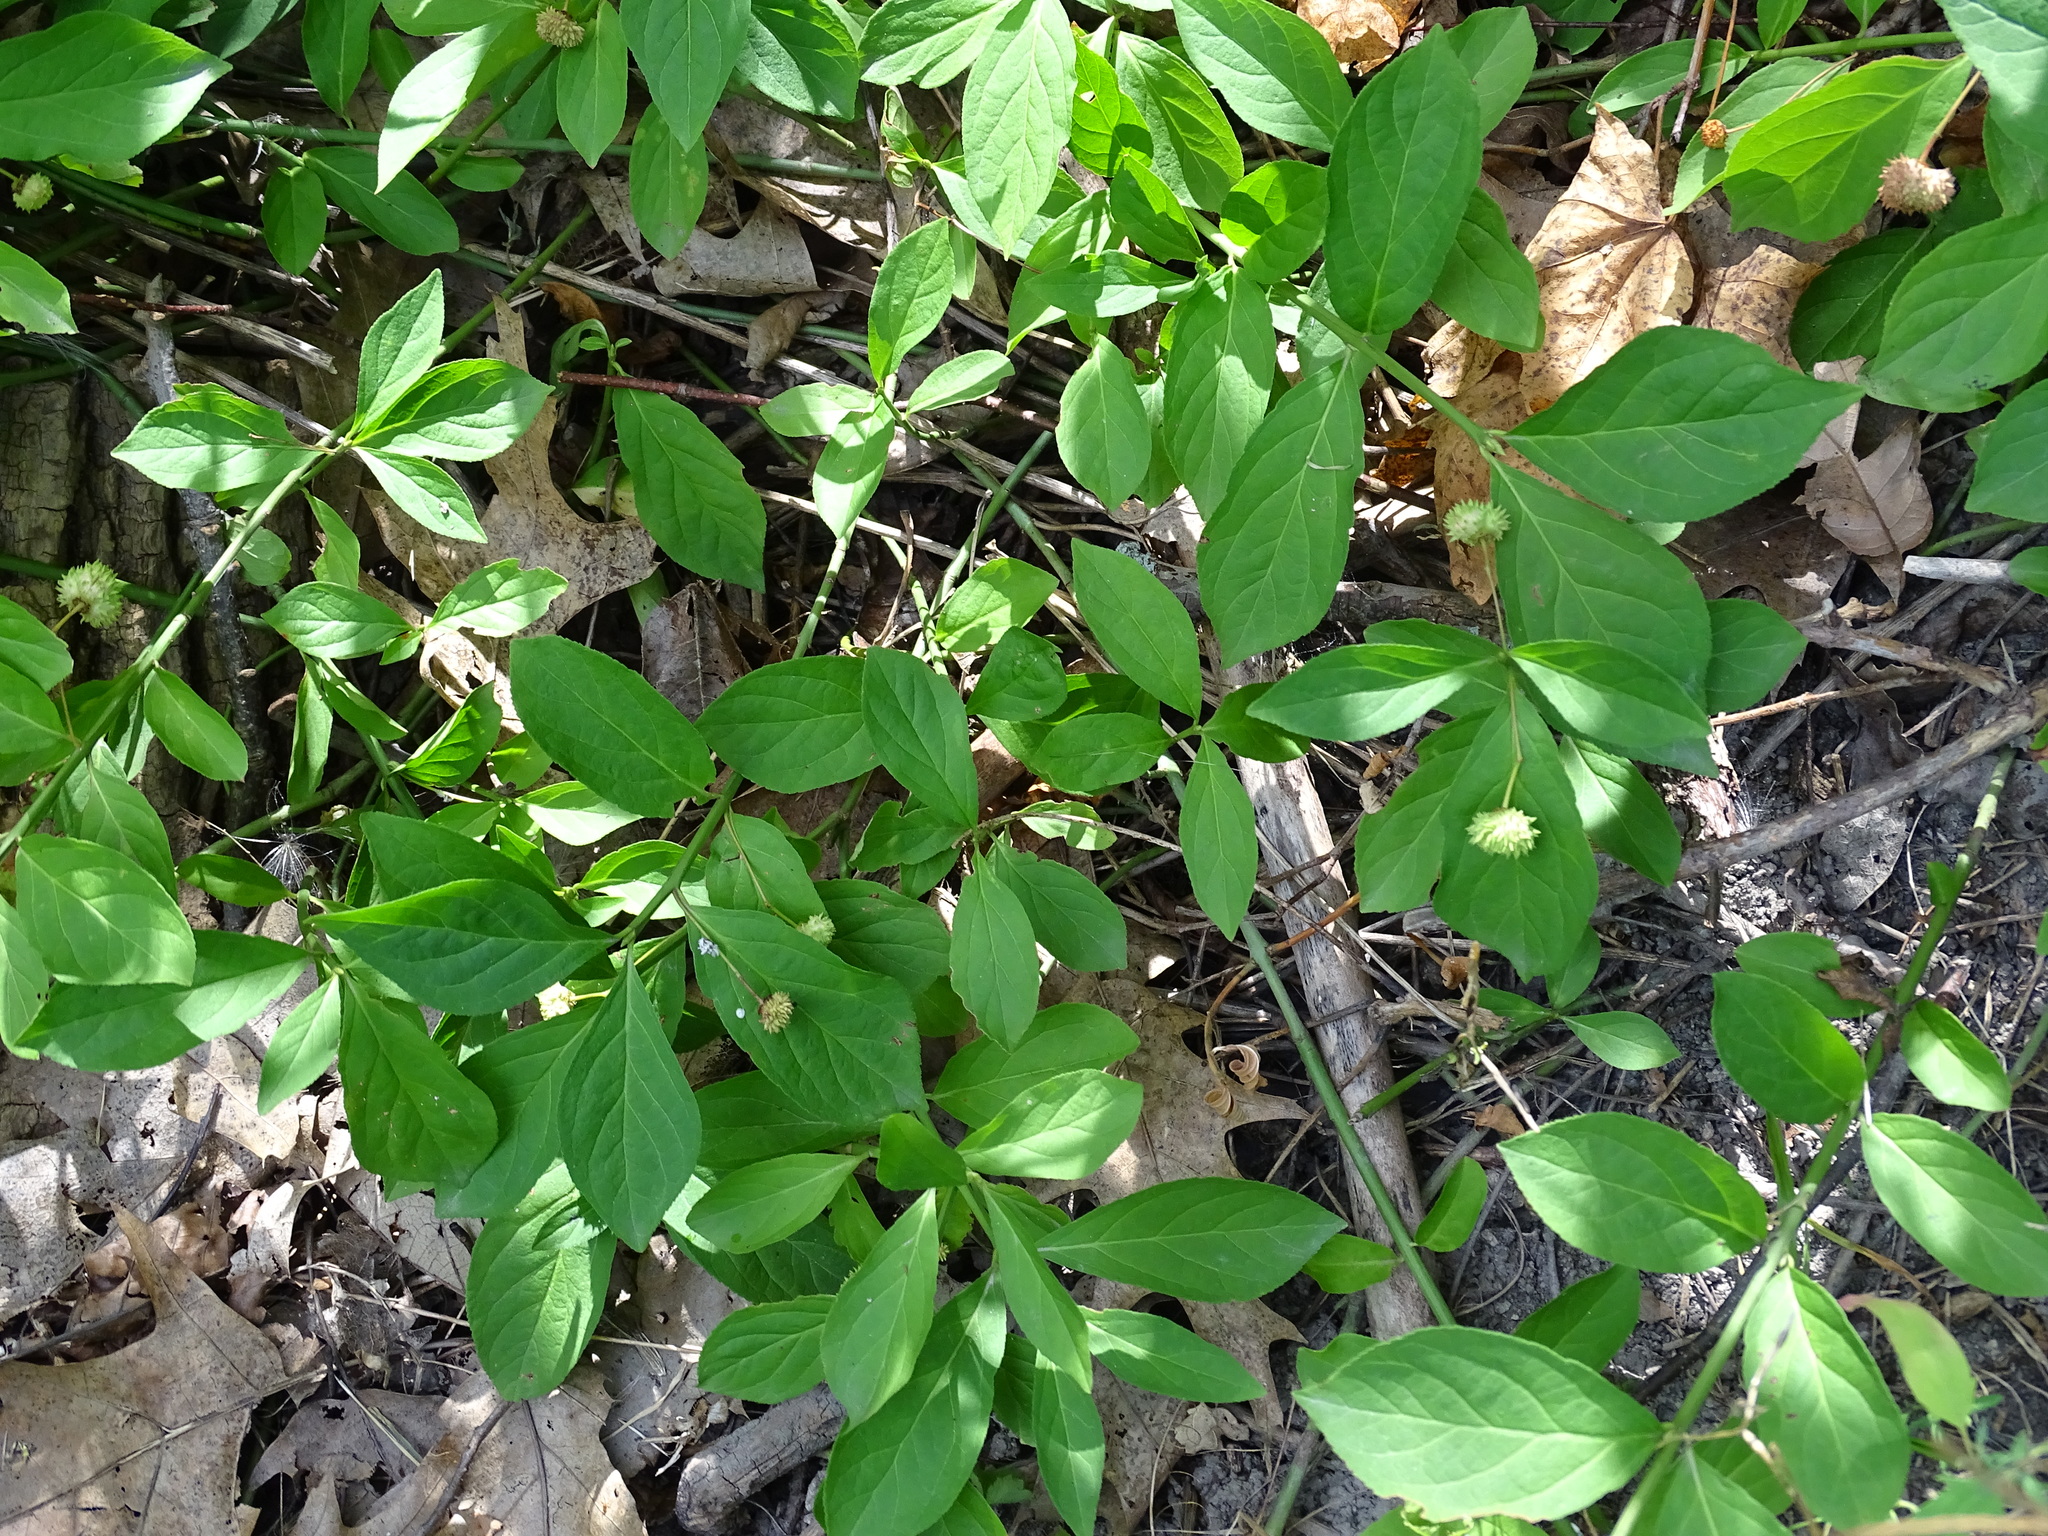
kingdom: Plantae
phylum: Tracheophyta
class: Magnoliopsida
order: Celastrales
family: Celastraceae
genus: Euonymus
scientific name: Euonymus obovatus
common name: Running strawberry-bush
